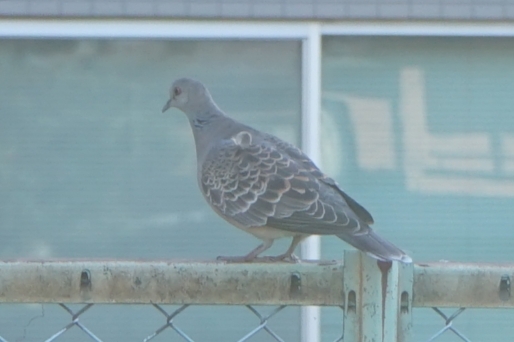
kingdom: Animalia
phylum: Chordata
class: Aves
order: Columbiformes
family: Columbidae
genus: Streptopelia
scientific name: Streptopelia orientalis
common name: Oriental turtle dove
